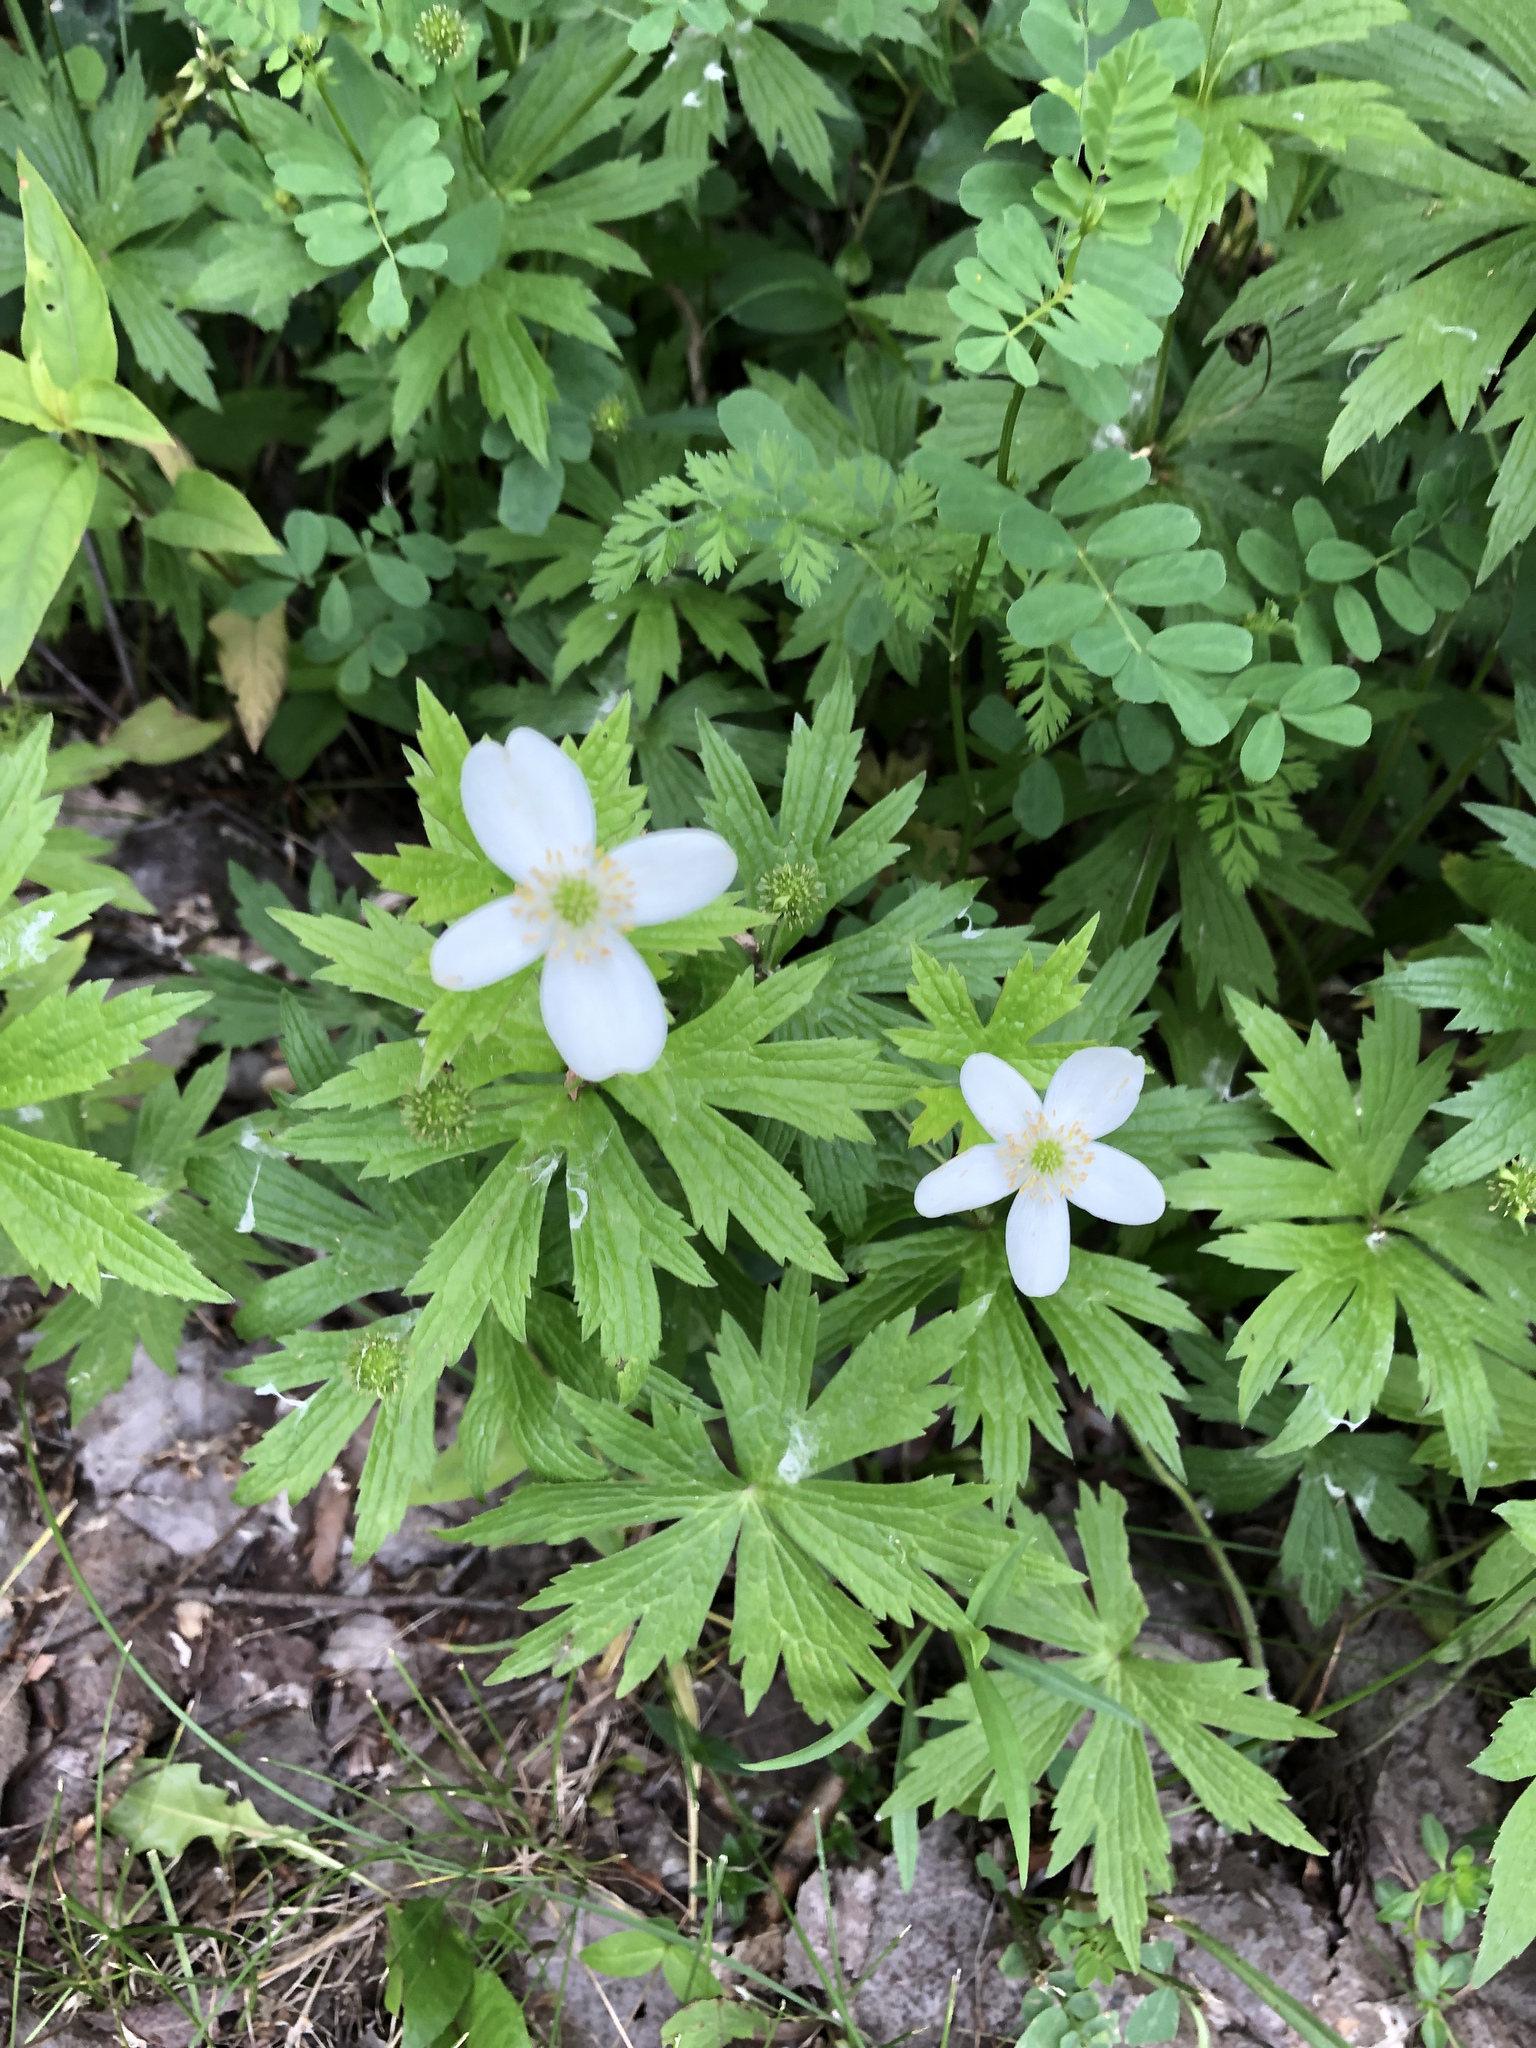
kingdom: Plantae
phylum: Tracheophyta
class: Magnoliopsida
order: Ranunculales
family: Ranunculaceae
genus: Anemonastrum
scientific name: Anemonastrum canadense
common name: Canada anemone
